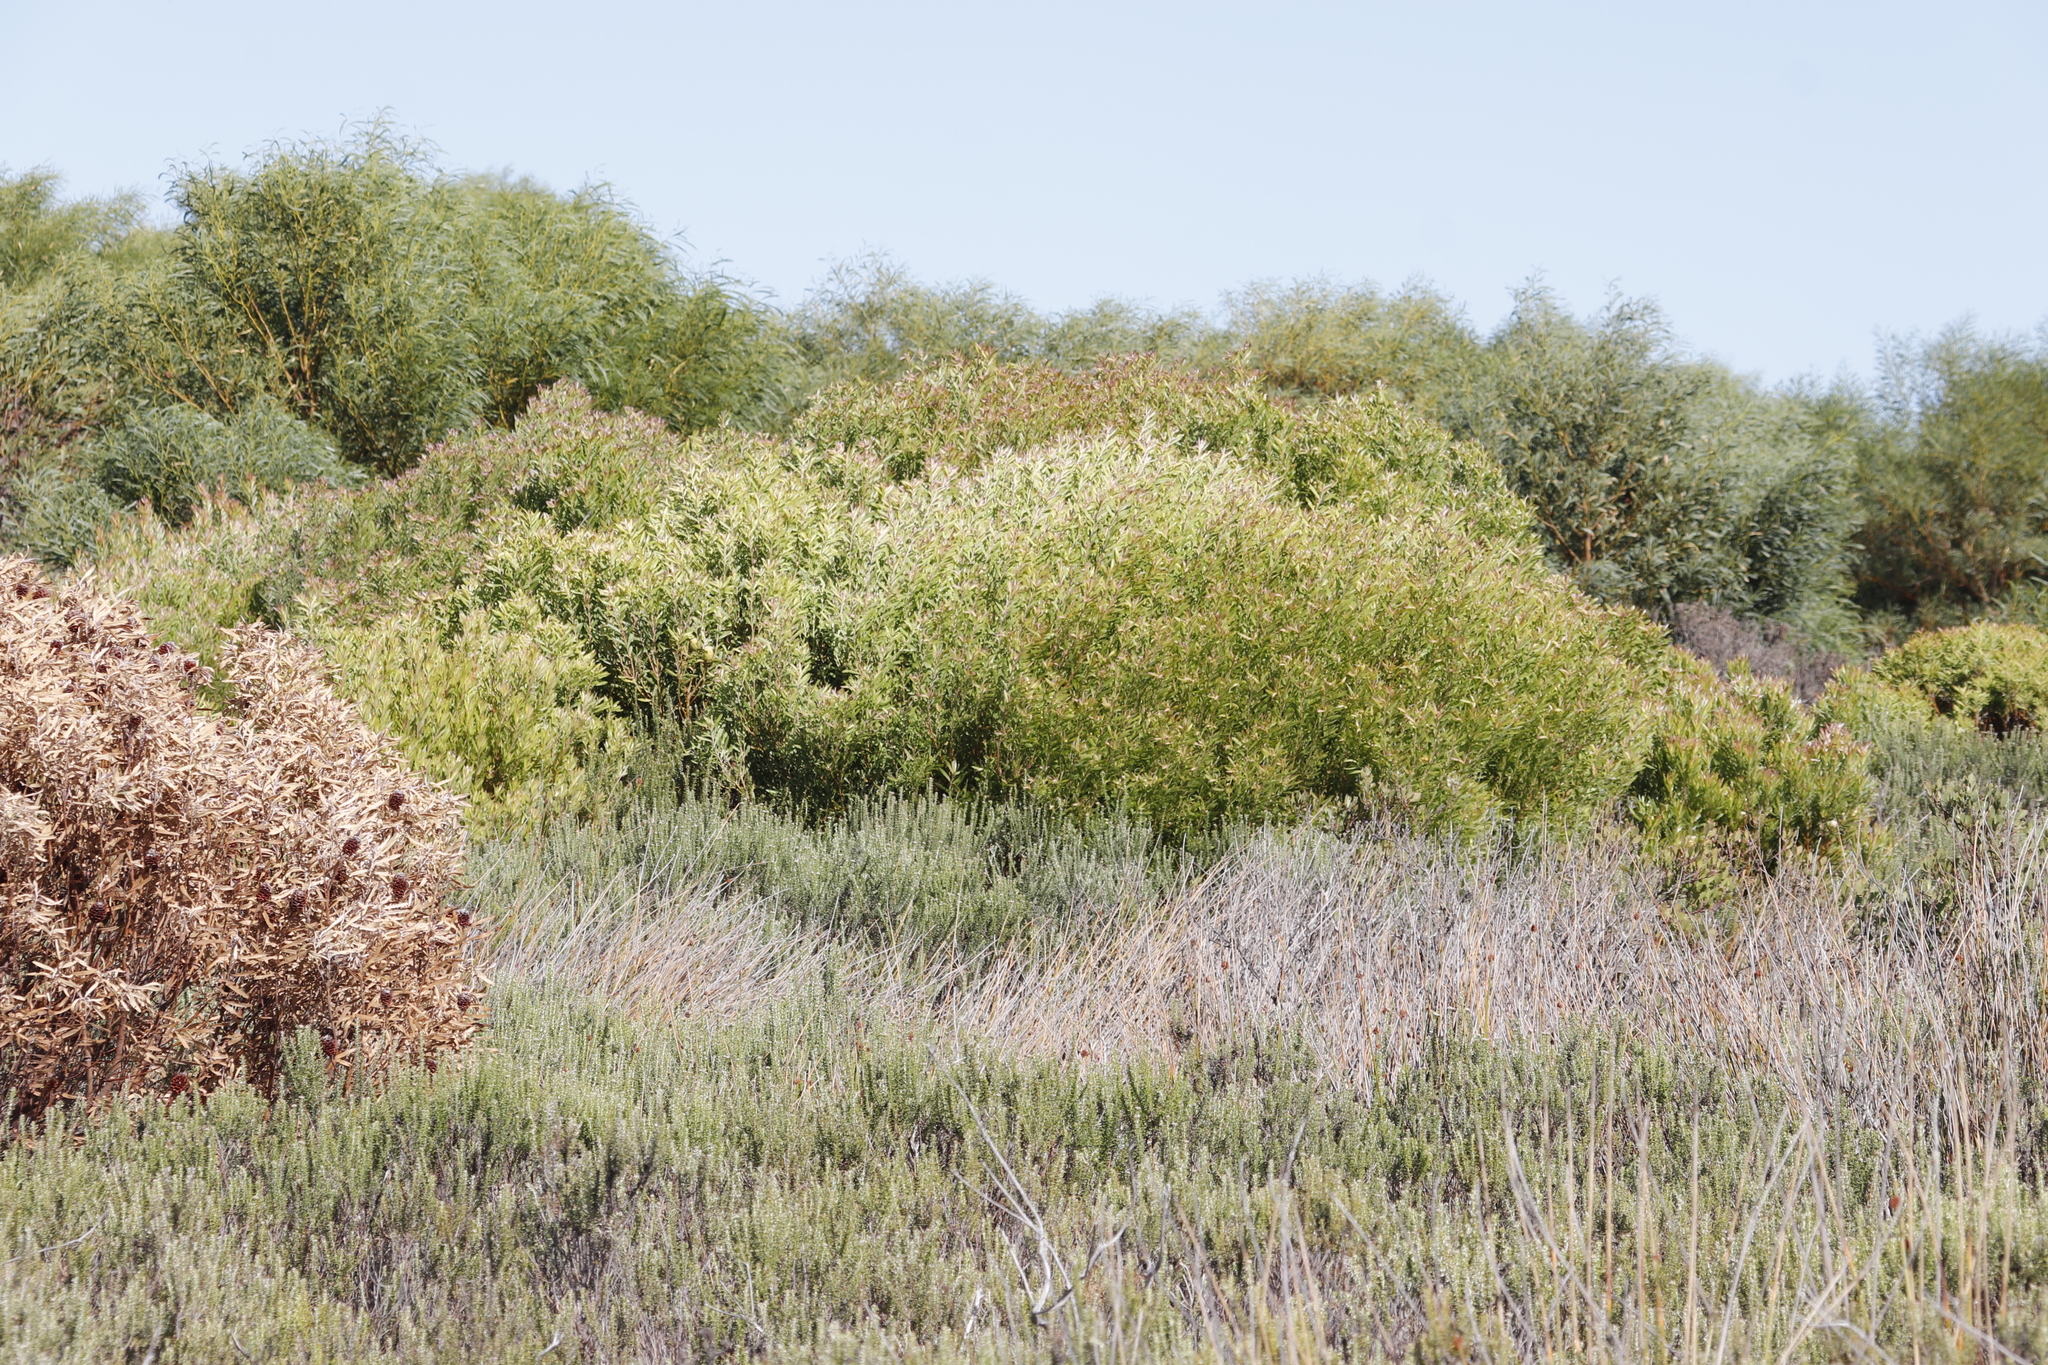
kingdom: Plantae
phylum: Tracheophyta
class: Magnoliopsida
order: Proteales
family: Proteaceae
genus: Leucadendron
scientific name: Leucadendron coniferum
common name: Dune conebush
